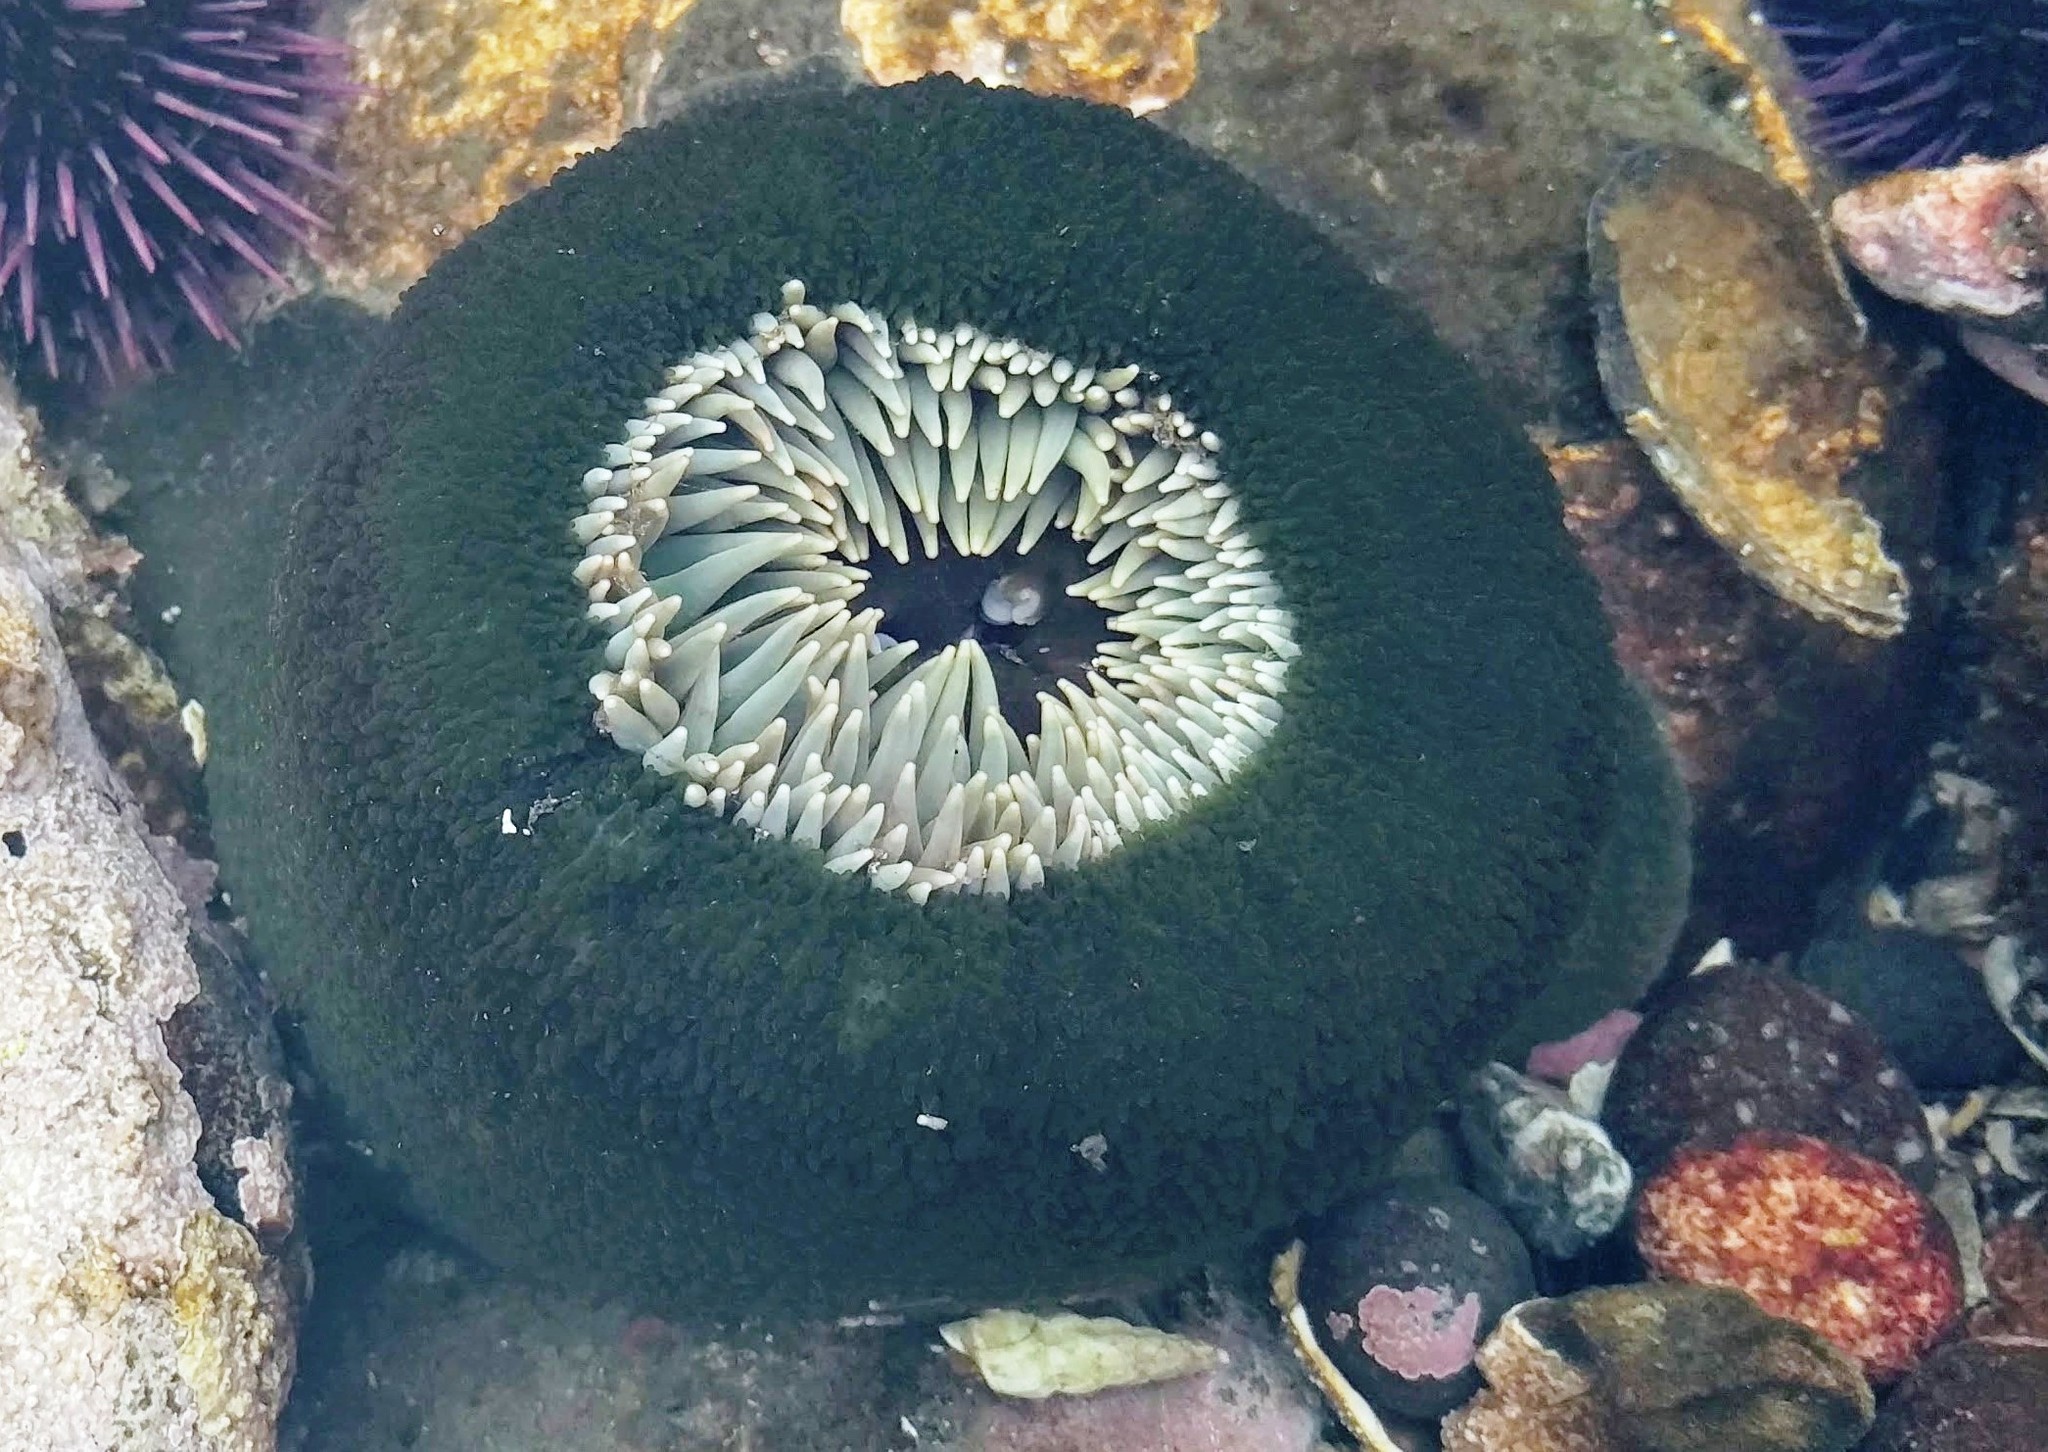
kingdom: Animalia
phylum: Cnidaria
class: Anthozoa
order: Actiniaria
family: Actiniidae
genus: Anthopleura
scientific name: Anthopleura xanthogrammica
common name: Giant green anemone
